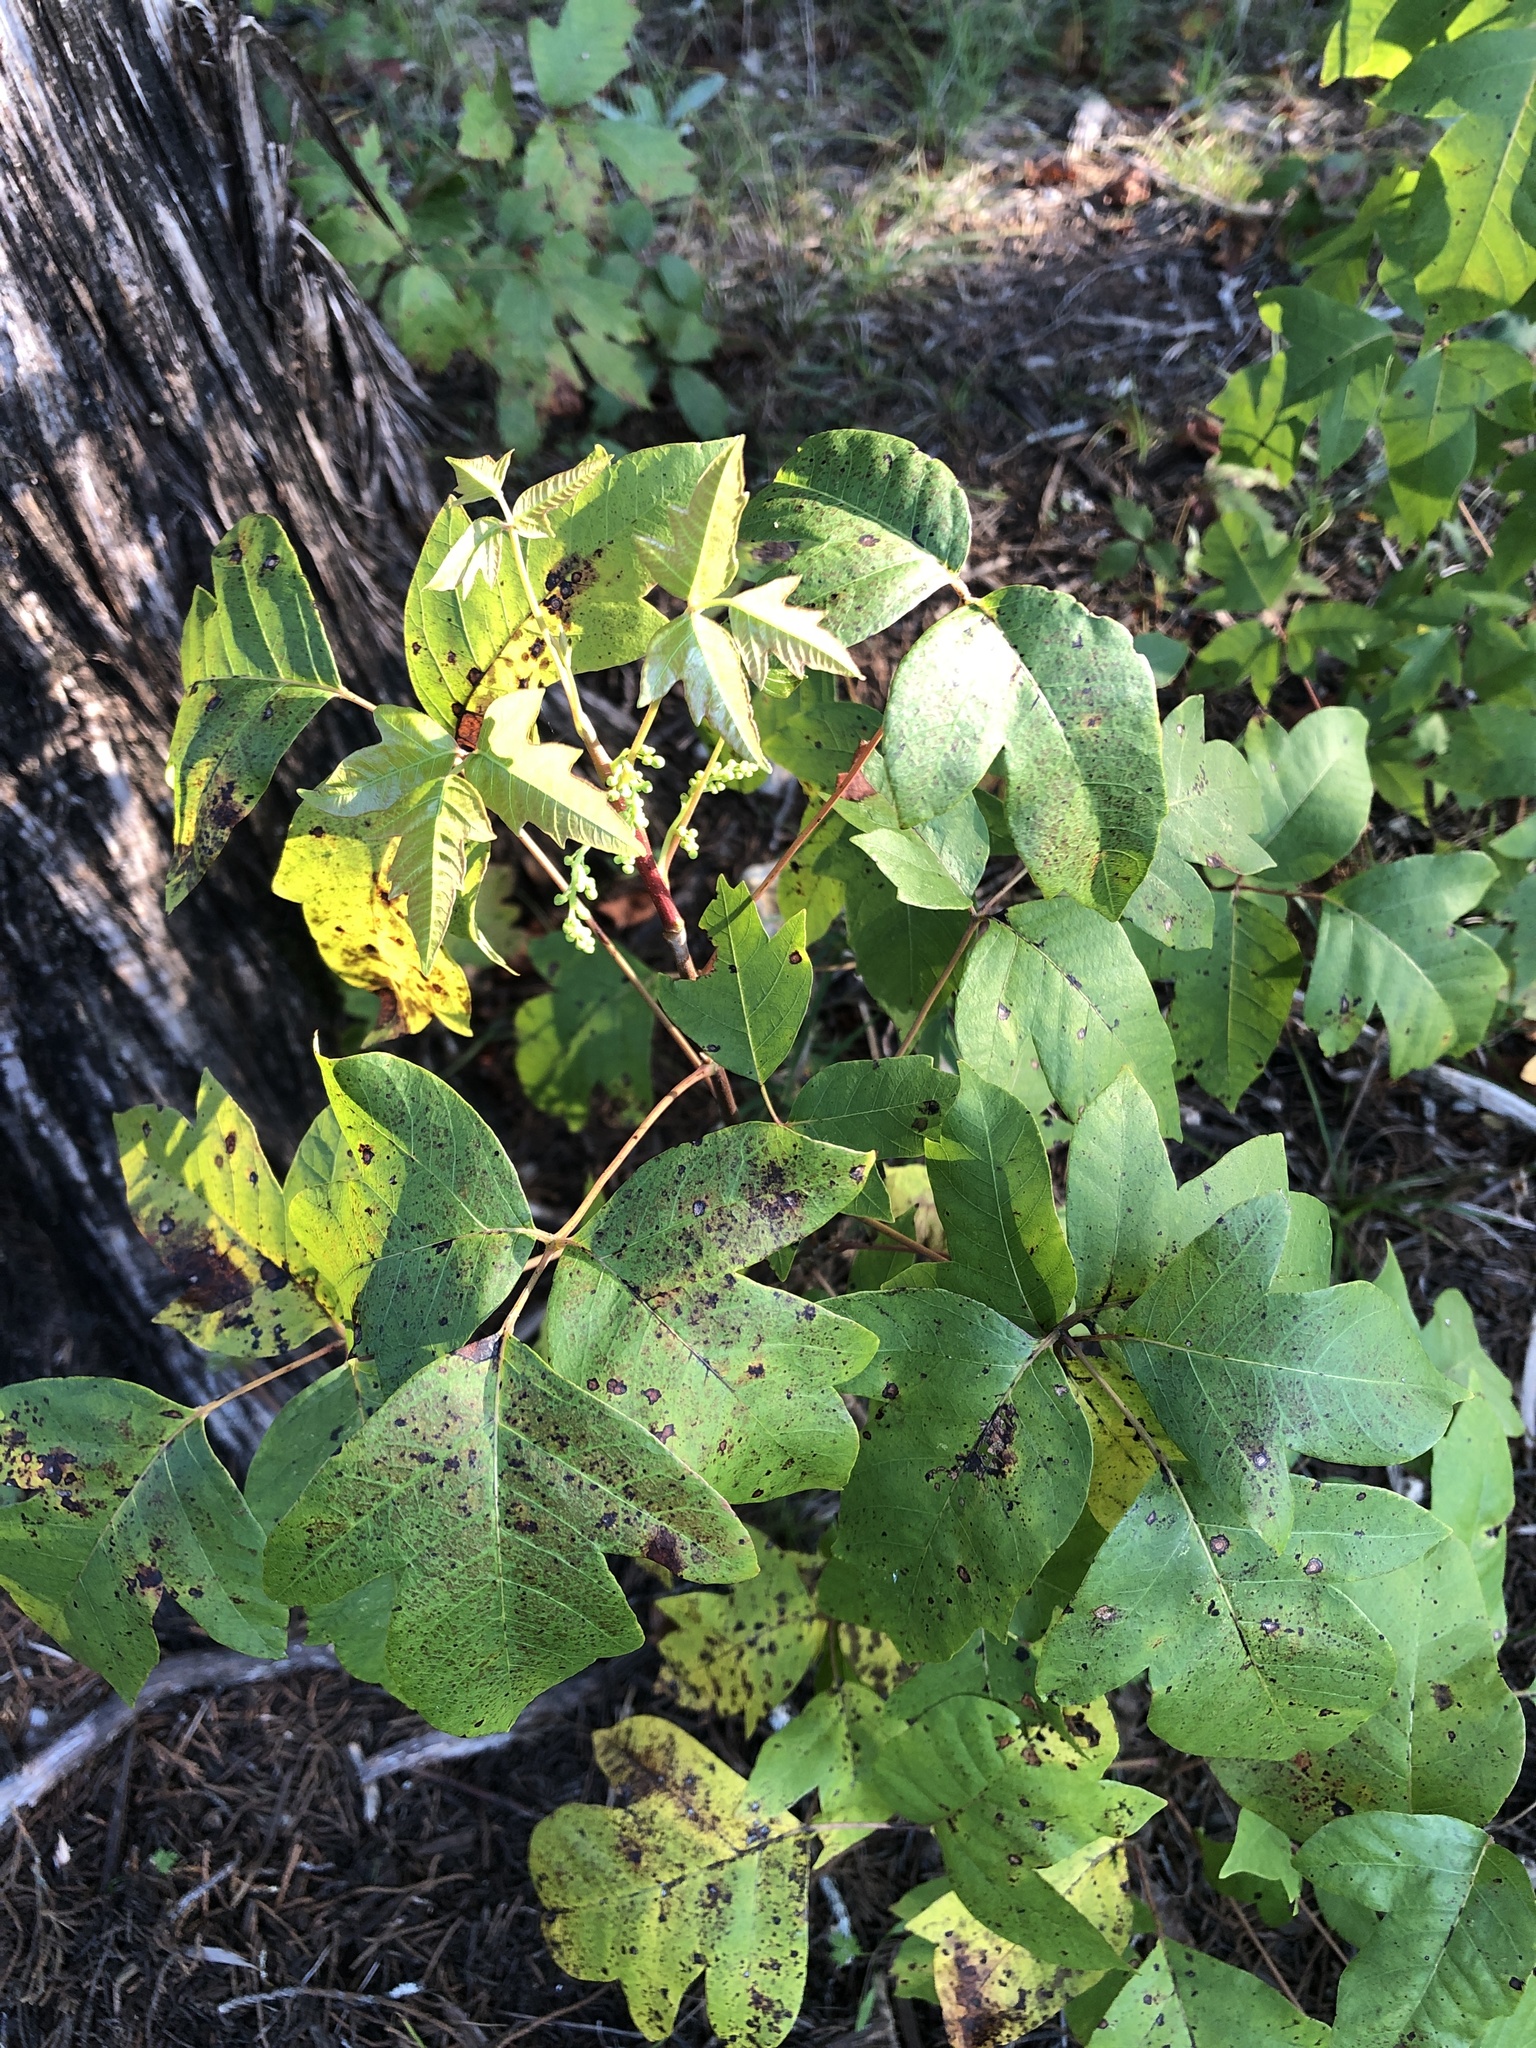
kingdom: Plantae
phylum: Tracheophyta
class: Magnoliopsida
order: Sapindales
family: Anacardiaceae
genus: Toxicodendron
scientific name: Toxicodendron radicans
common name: Poison ivy
